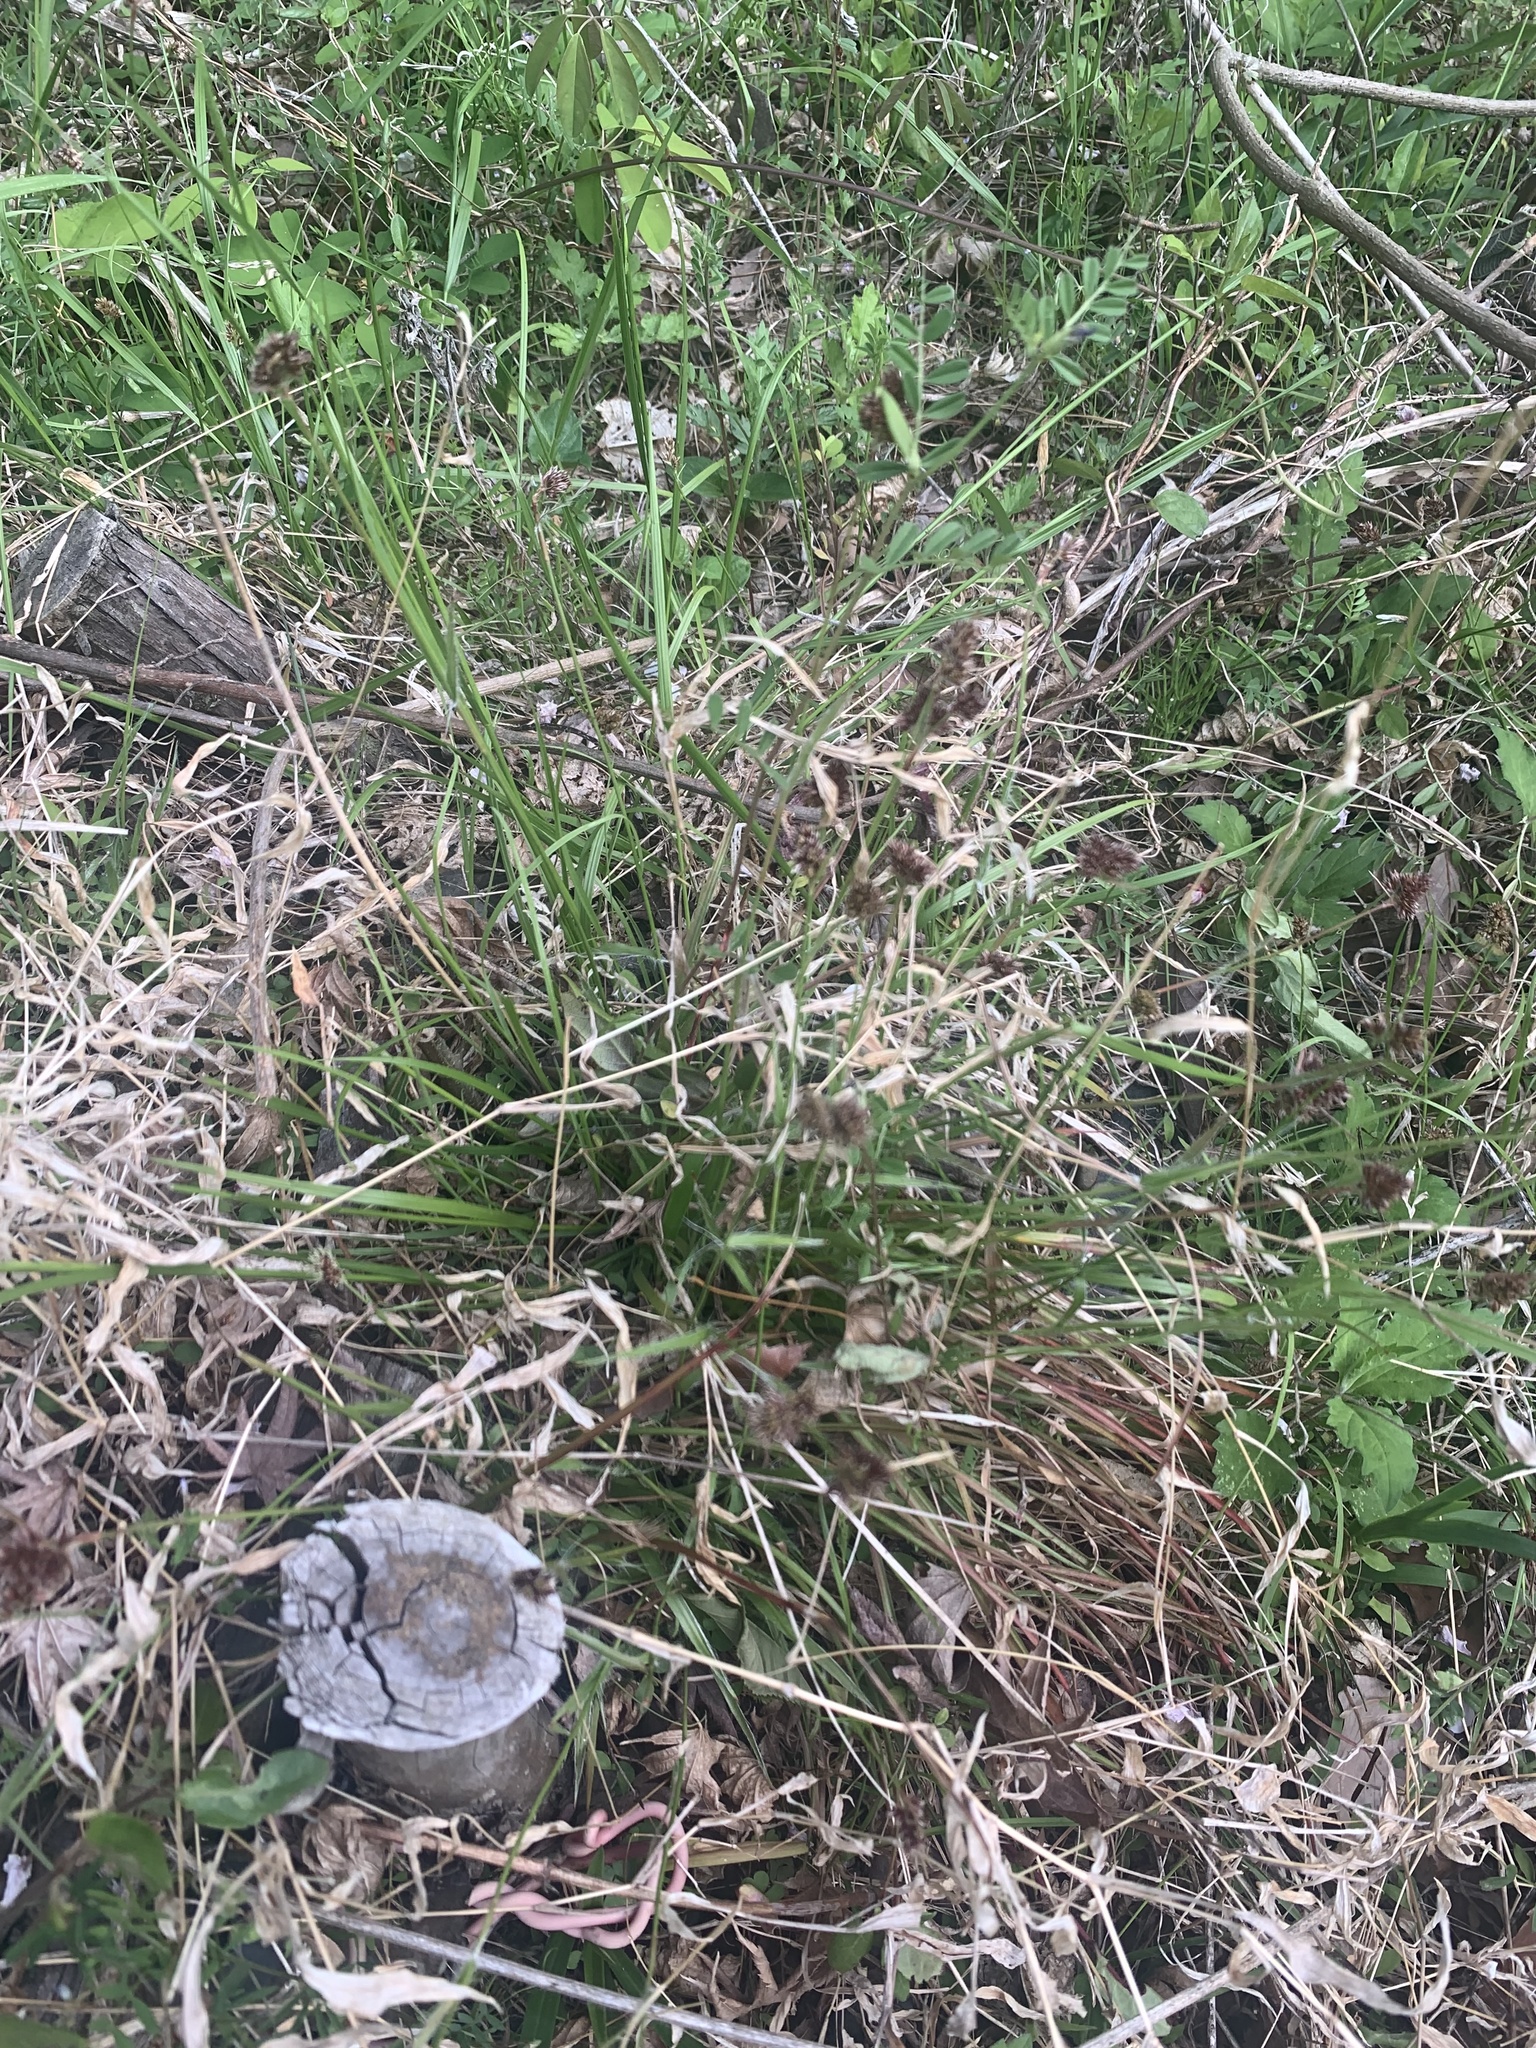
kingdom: Plantae
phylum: Tracheophyta
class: Liliopsida
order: Poales
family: Juncaceae
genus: Luzula
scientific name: Luzula capitata
